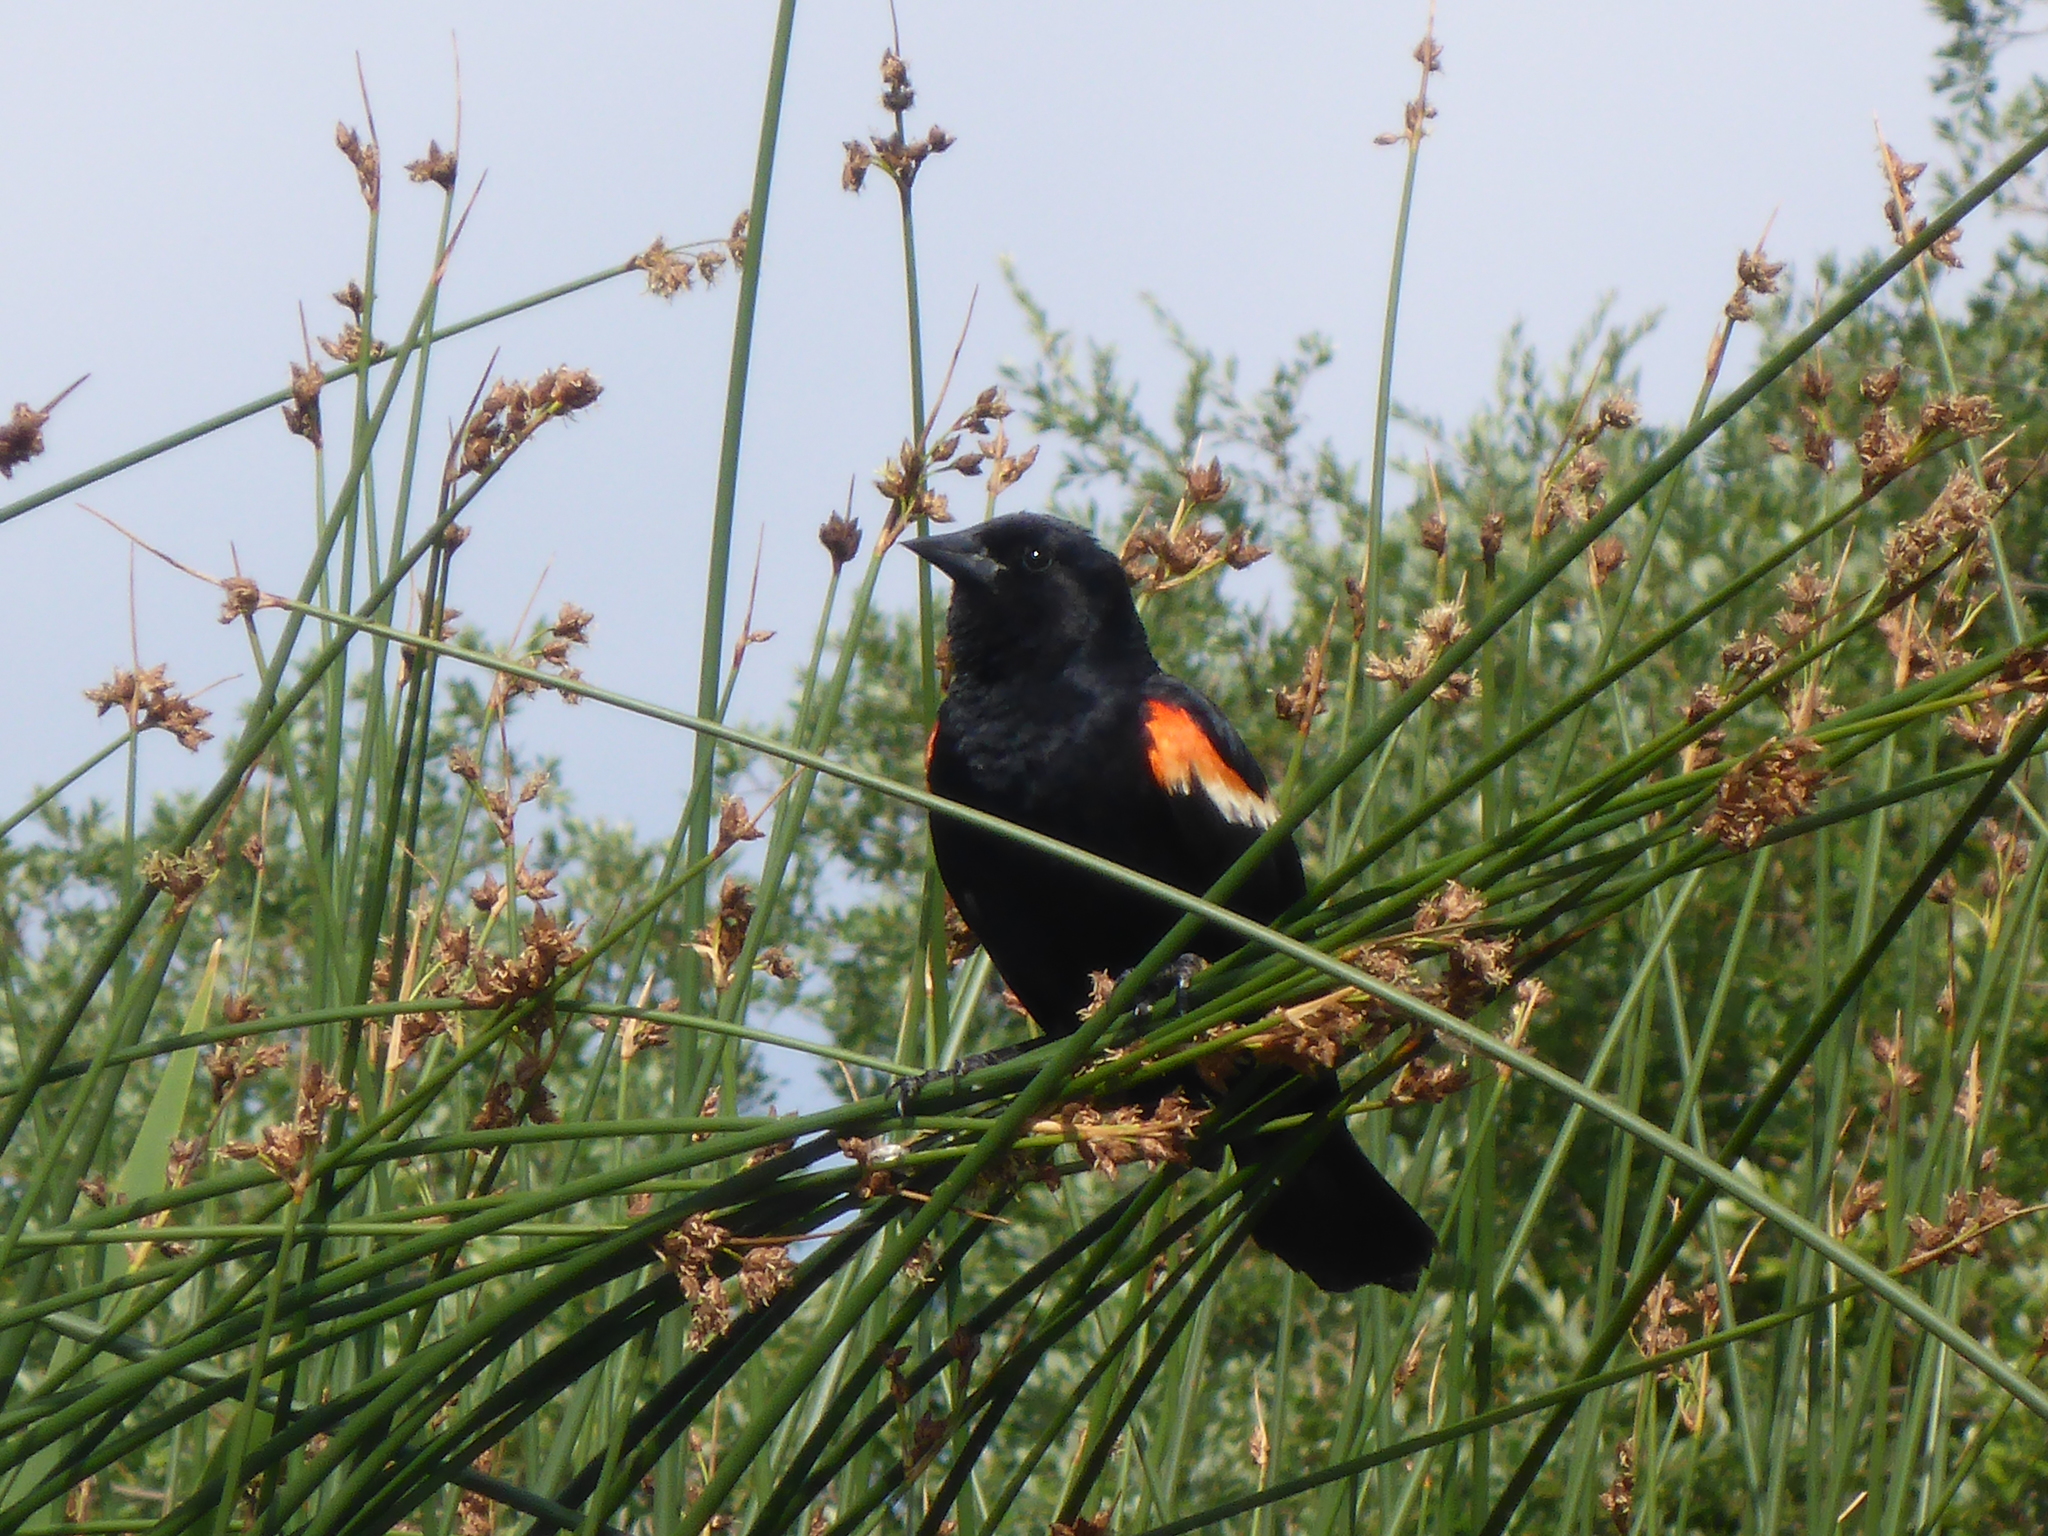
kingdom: Animalia
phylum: Chordata
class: Aves
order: Passeriformes
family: Icteridae
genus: Agelaius
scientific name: Agelaius phoeniceus
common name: Red-winged blackbird
